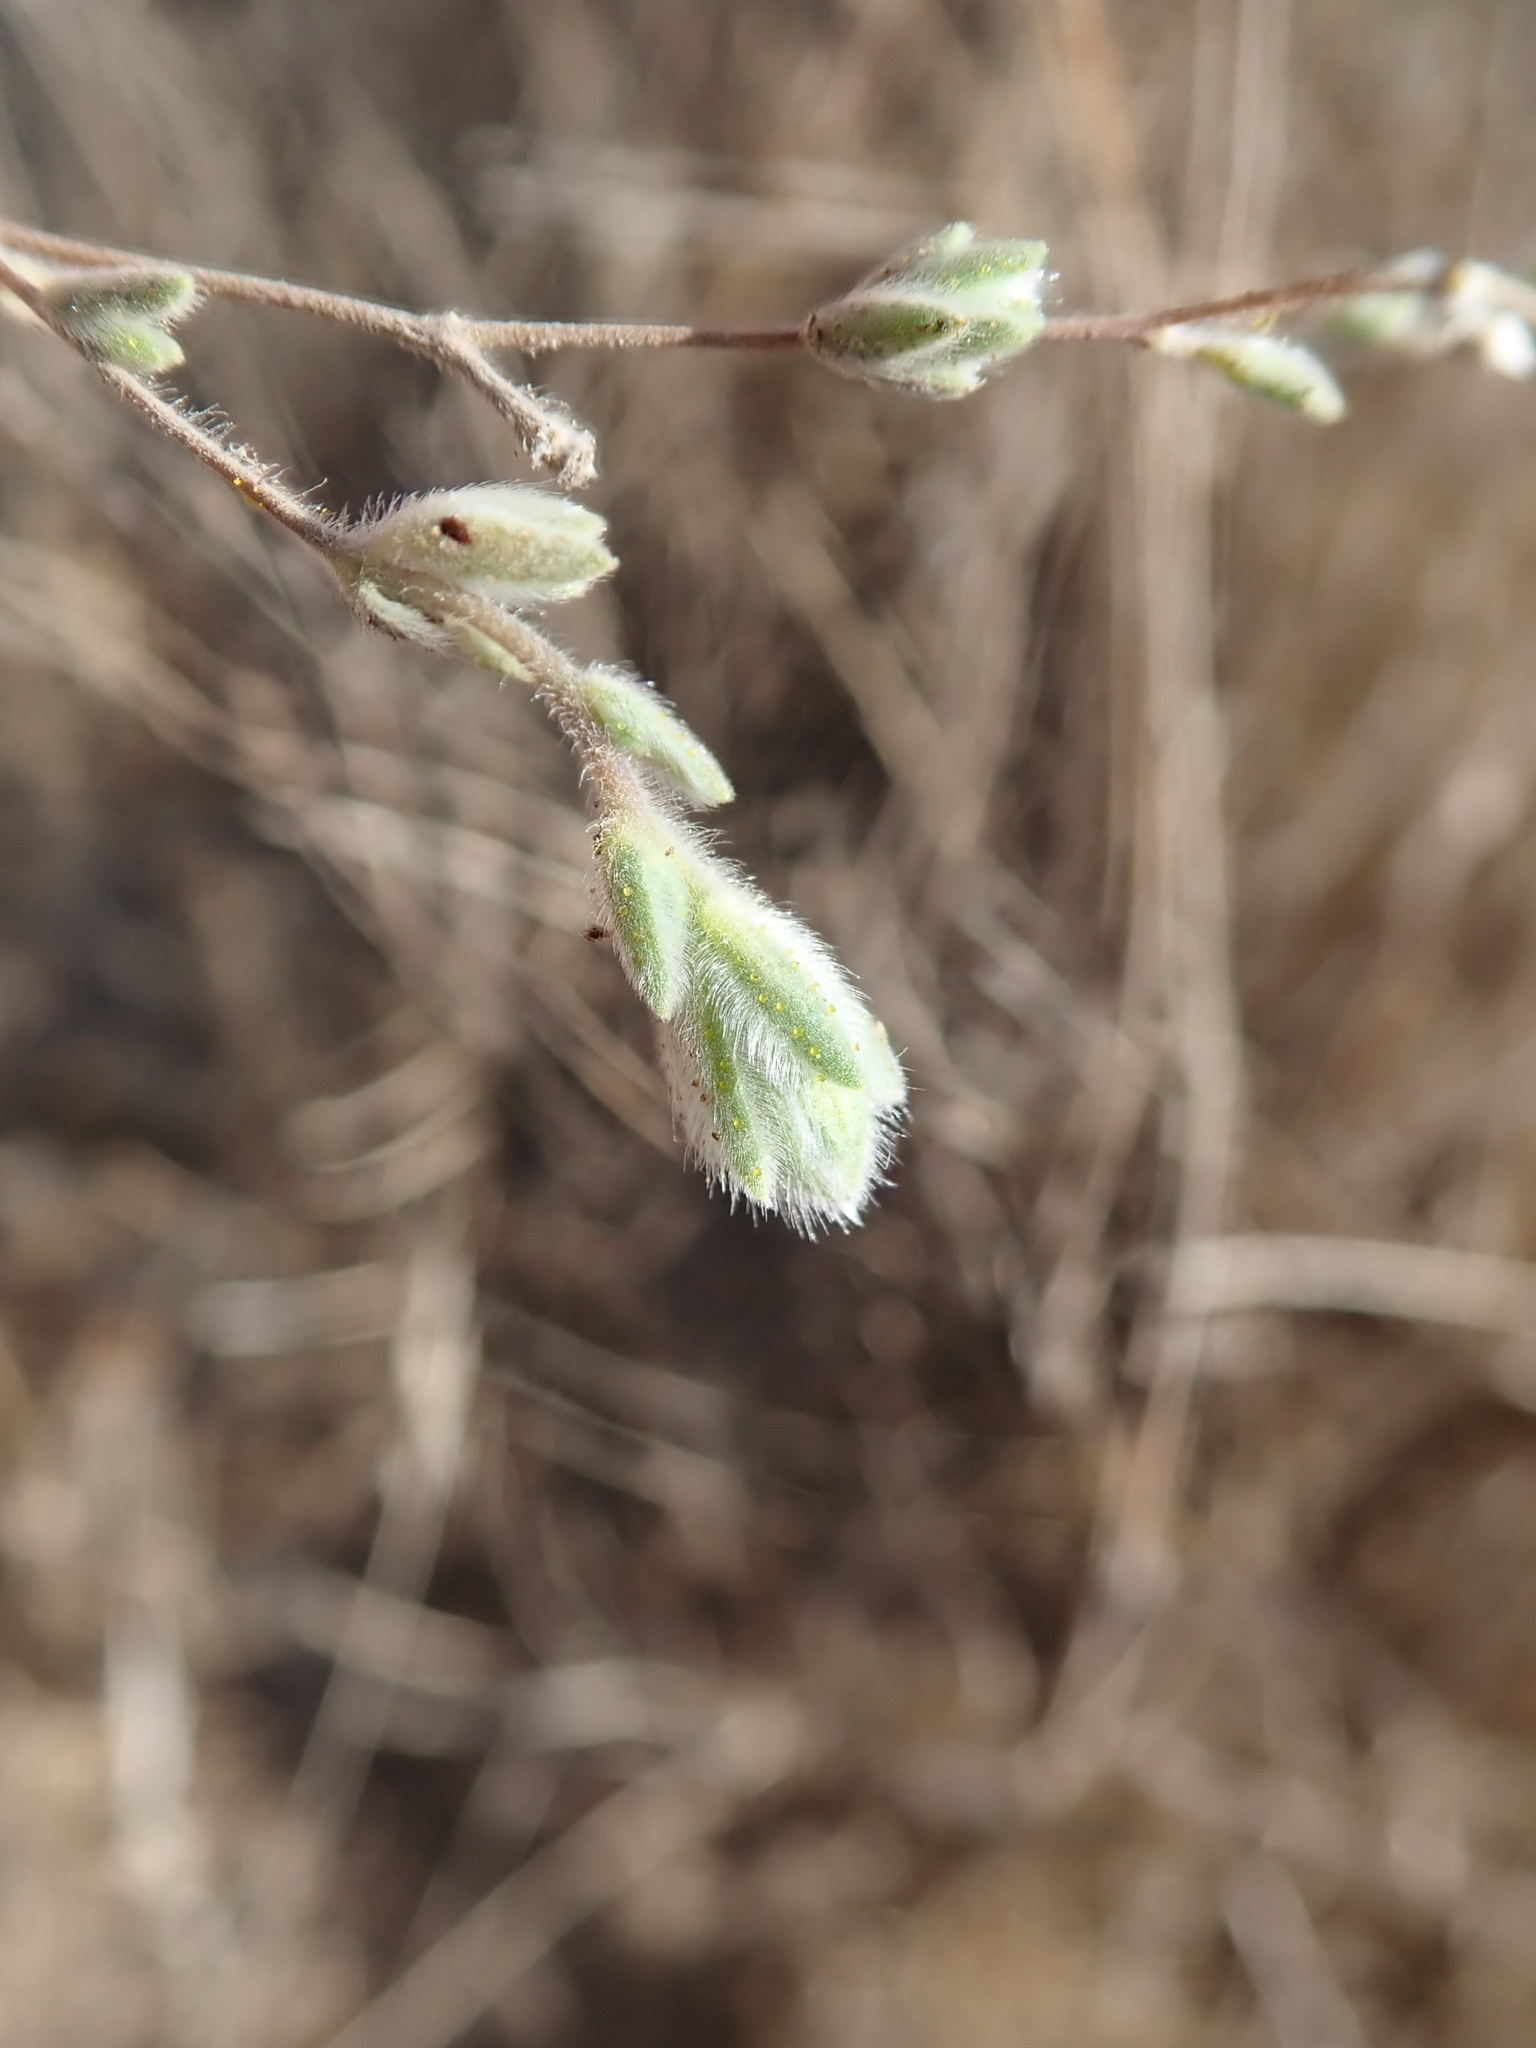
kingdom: Plantae
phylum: Tracheophyta
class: Magnoliopsida
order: Asterales
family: Asteraceae
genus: Lagophylla
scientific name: Lagophylla ramosissima
